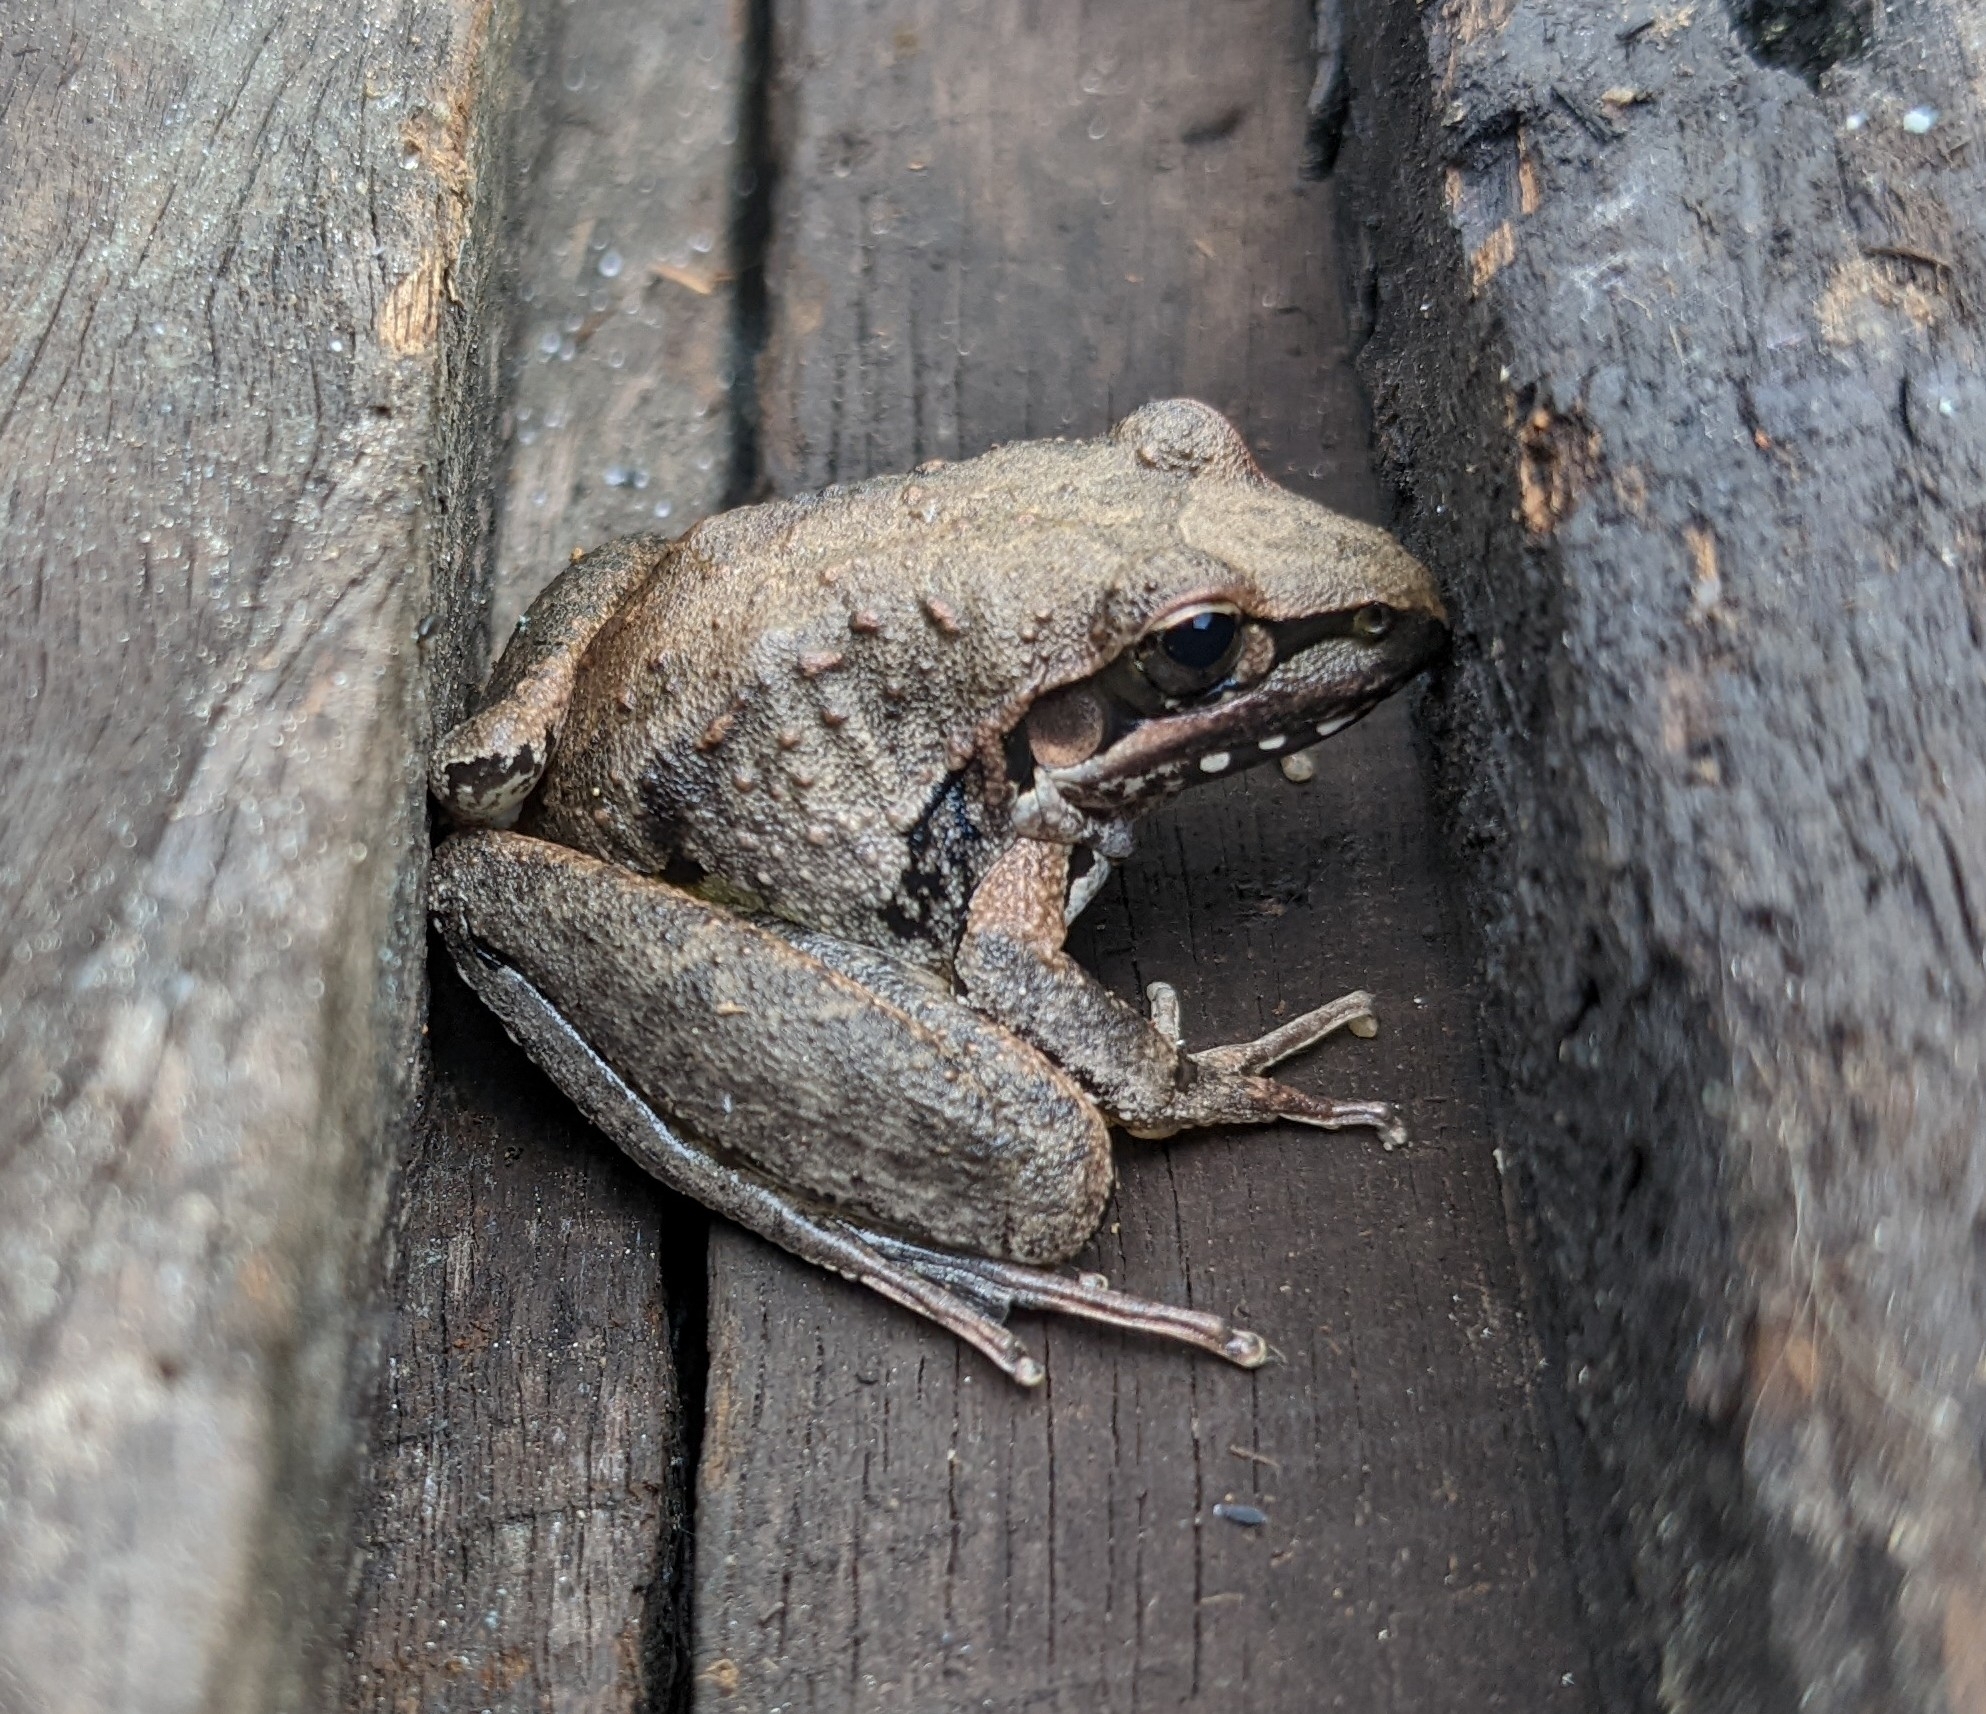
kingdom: Animalia
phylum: Chordata
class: Amphibia
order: Anura
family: Pelodryadidae
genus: Litoria
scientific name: Litoria latopalmata
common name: Broad-palmed rocket frog
